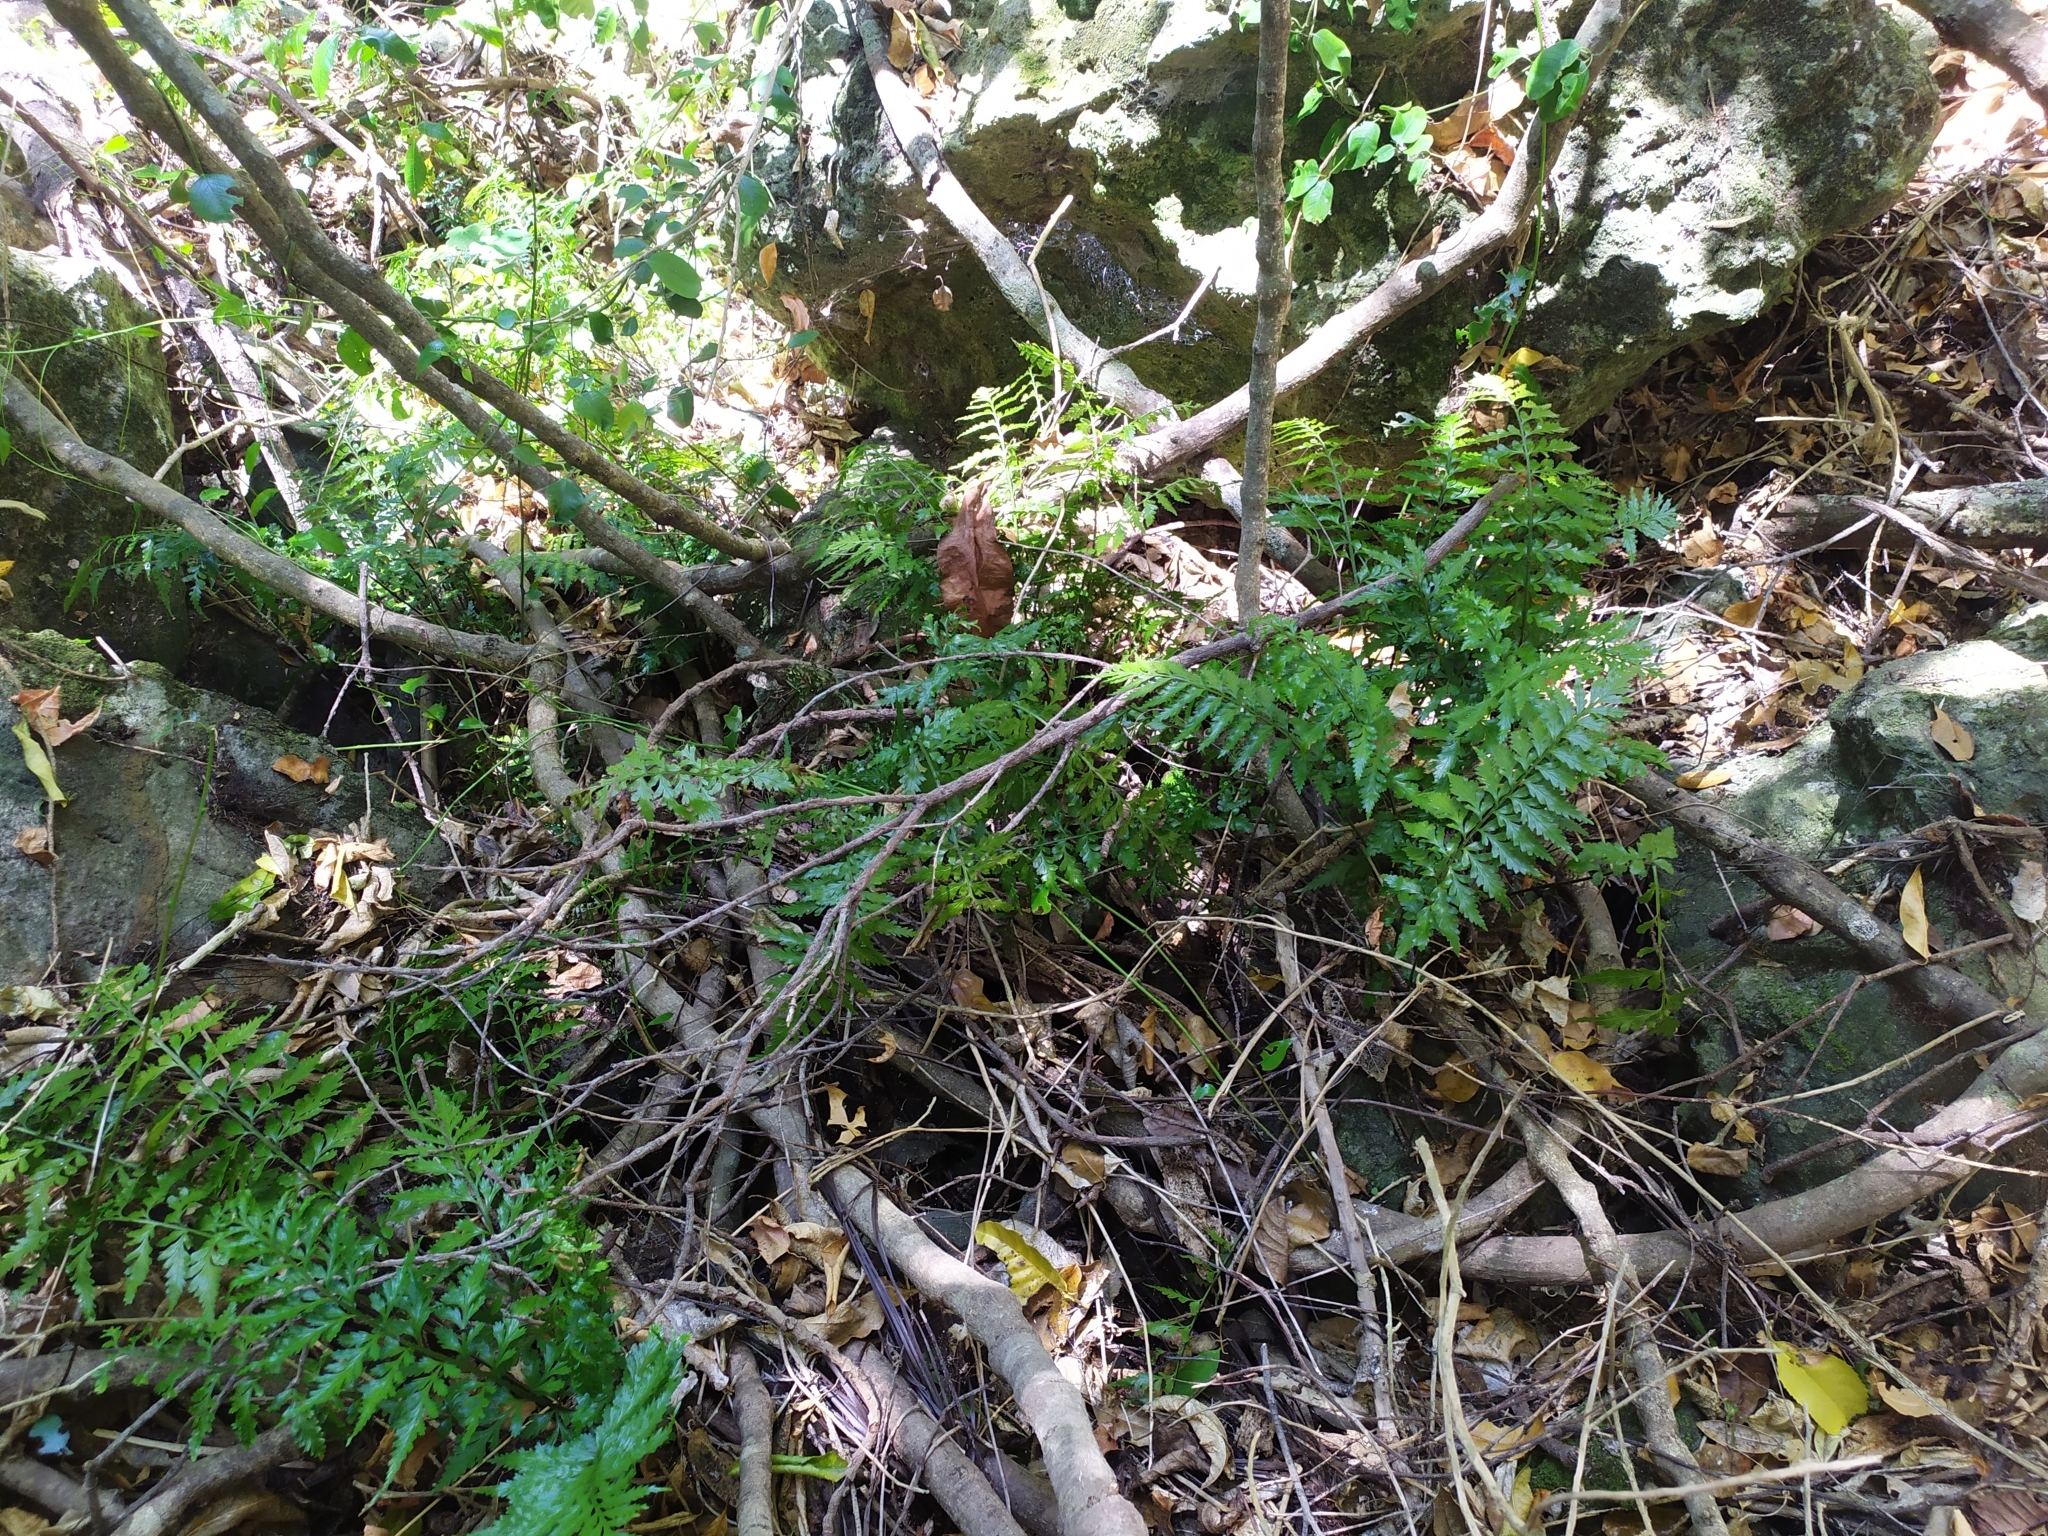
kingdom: Plantae
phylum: Tracheophyta
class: Polypodiopsida
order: Polypodiales
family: Aspleniaceae
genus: Asplenium
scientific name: Asplenium lamprophyllum
